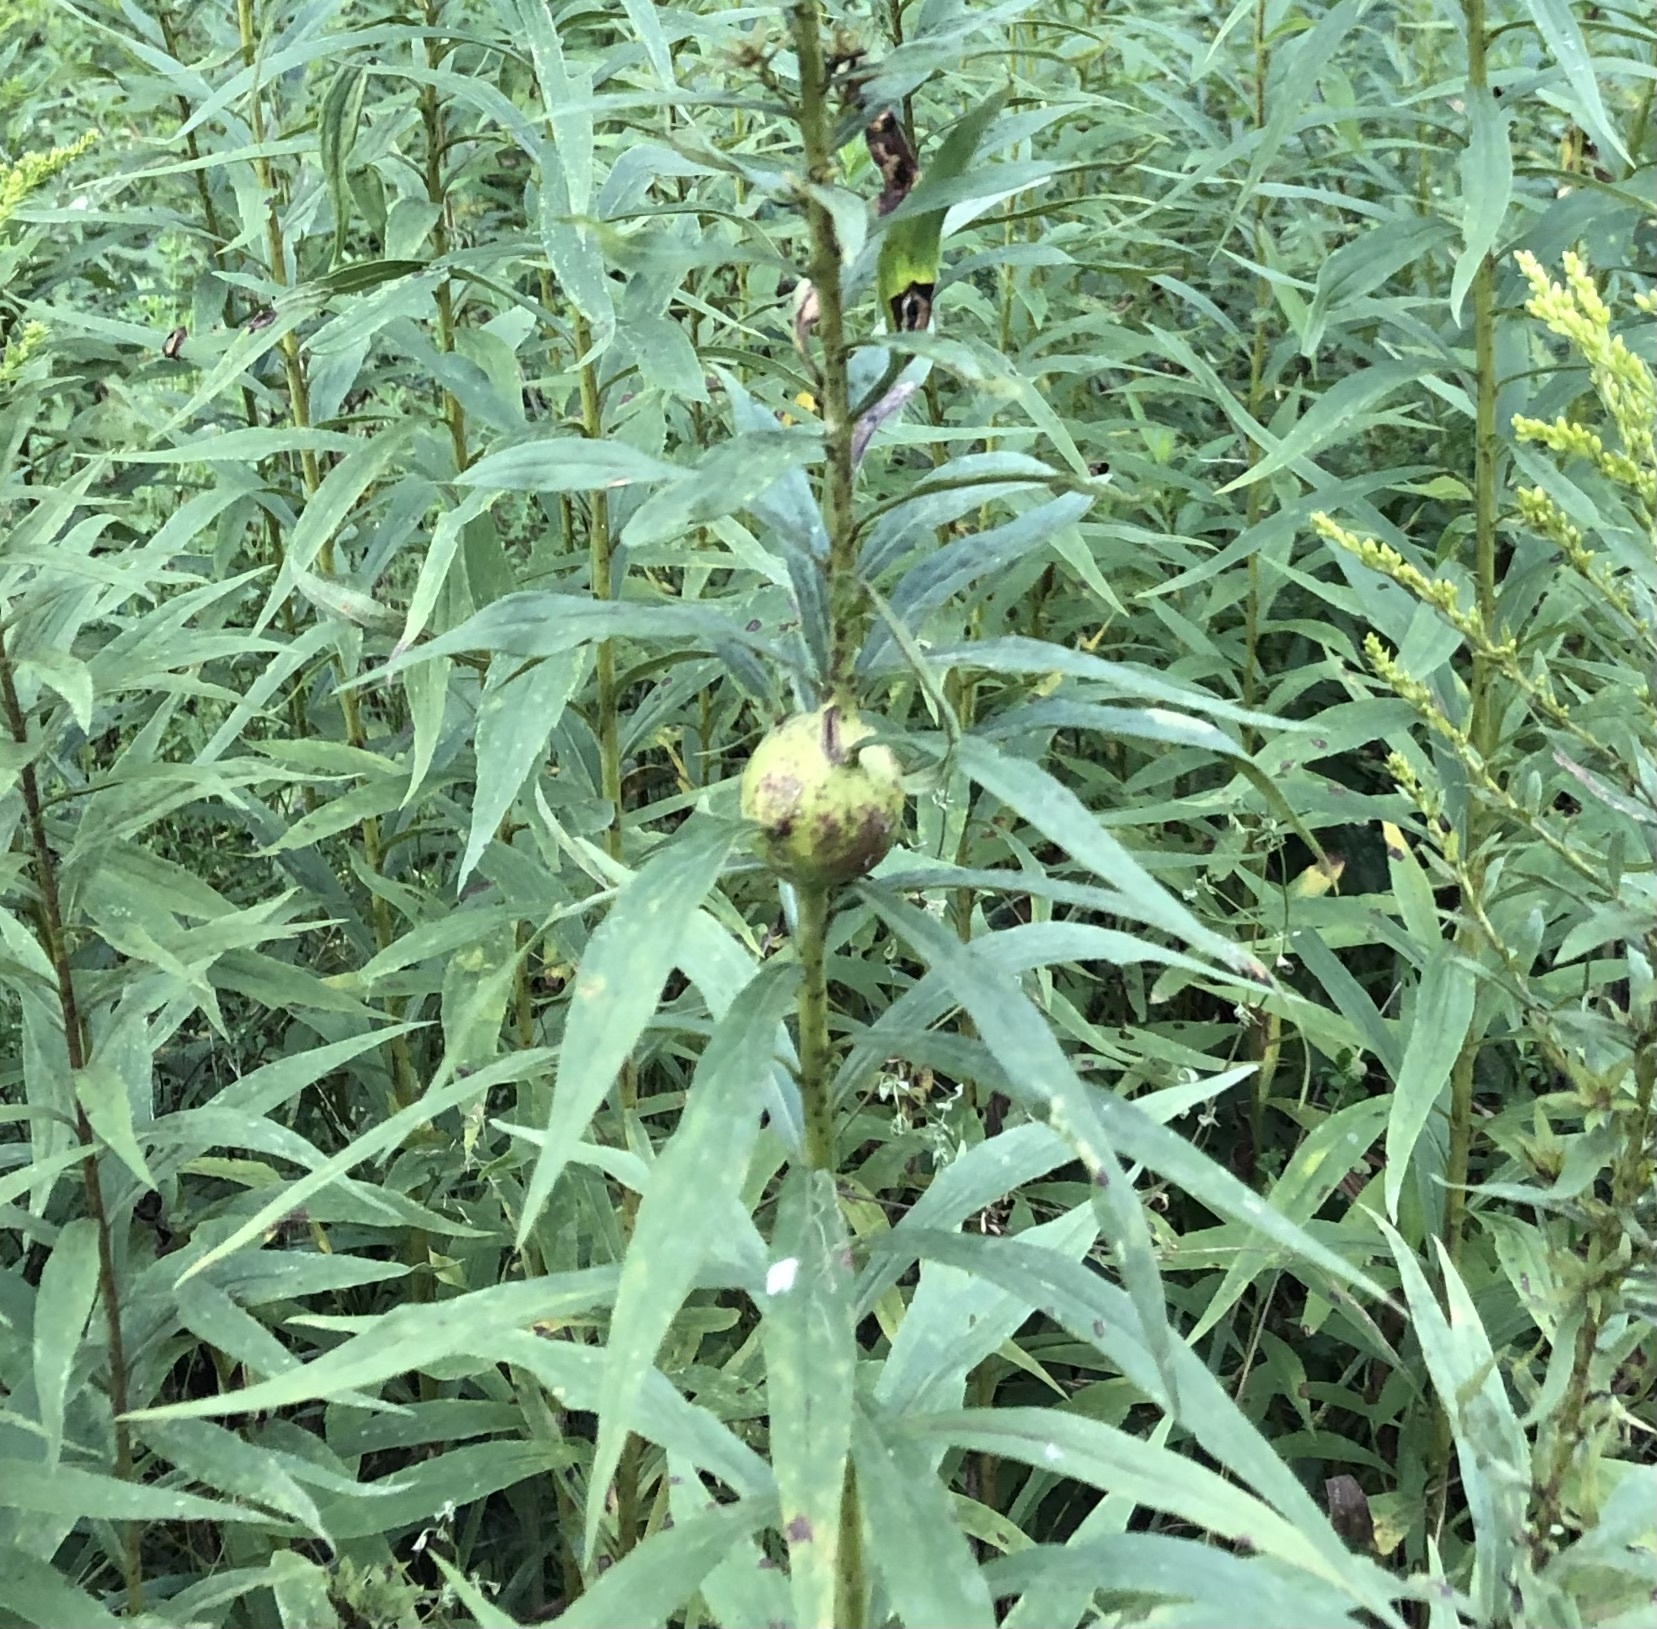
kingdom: Animalia
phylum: Arthropoda
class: Insecta
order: Diptera
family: Tephritidae
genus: Eurosta
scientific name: Eurosta solidaginis
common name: Goldenrod gall fly
